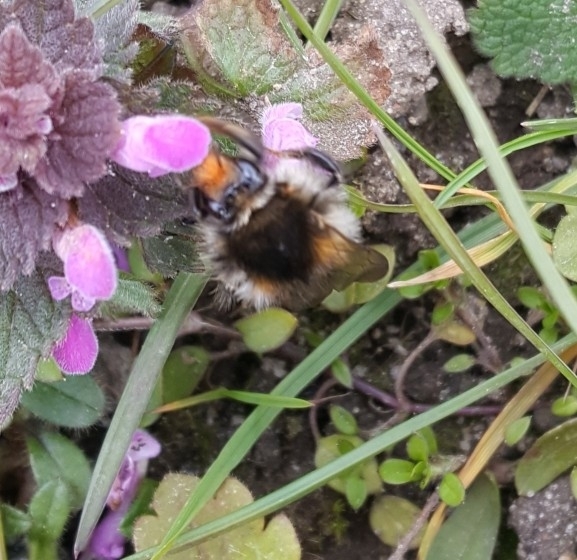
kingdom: Animalia
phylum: Arthropoda
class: Insecta
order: Hymenoptera
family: Apidae
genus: Bombus
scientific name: Bombus pascuorum
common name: Common carder bee
